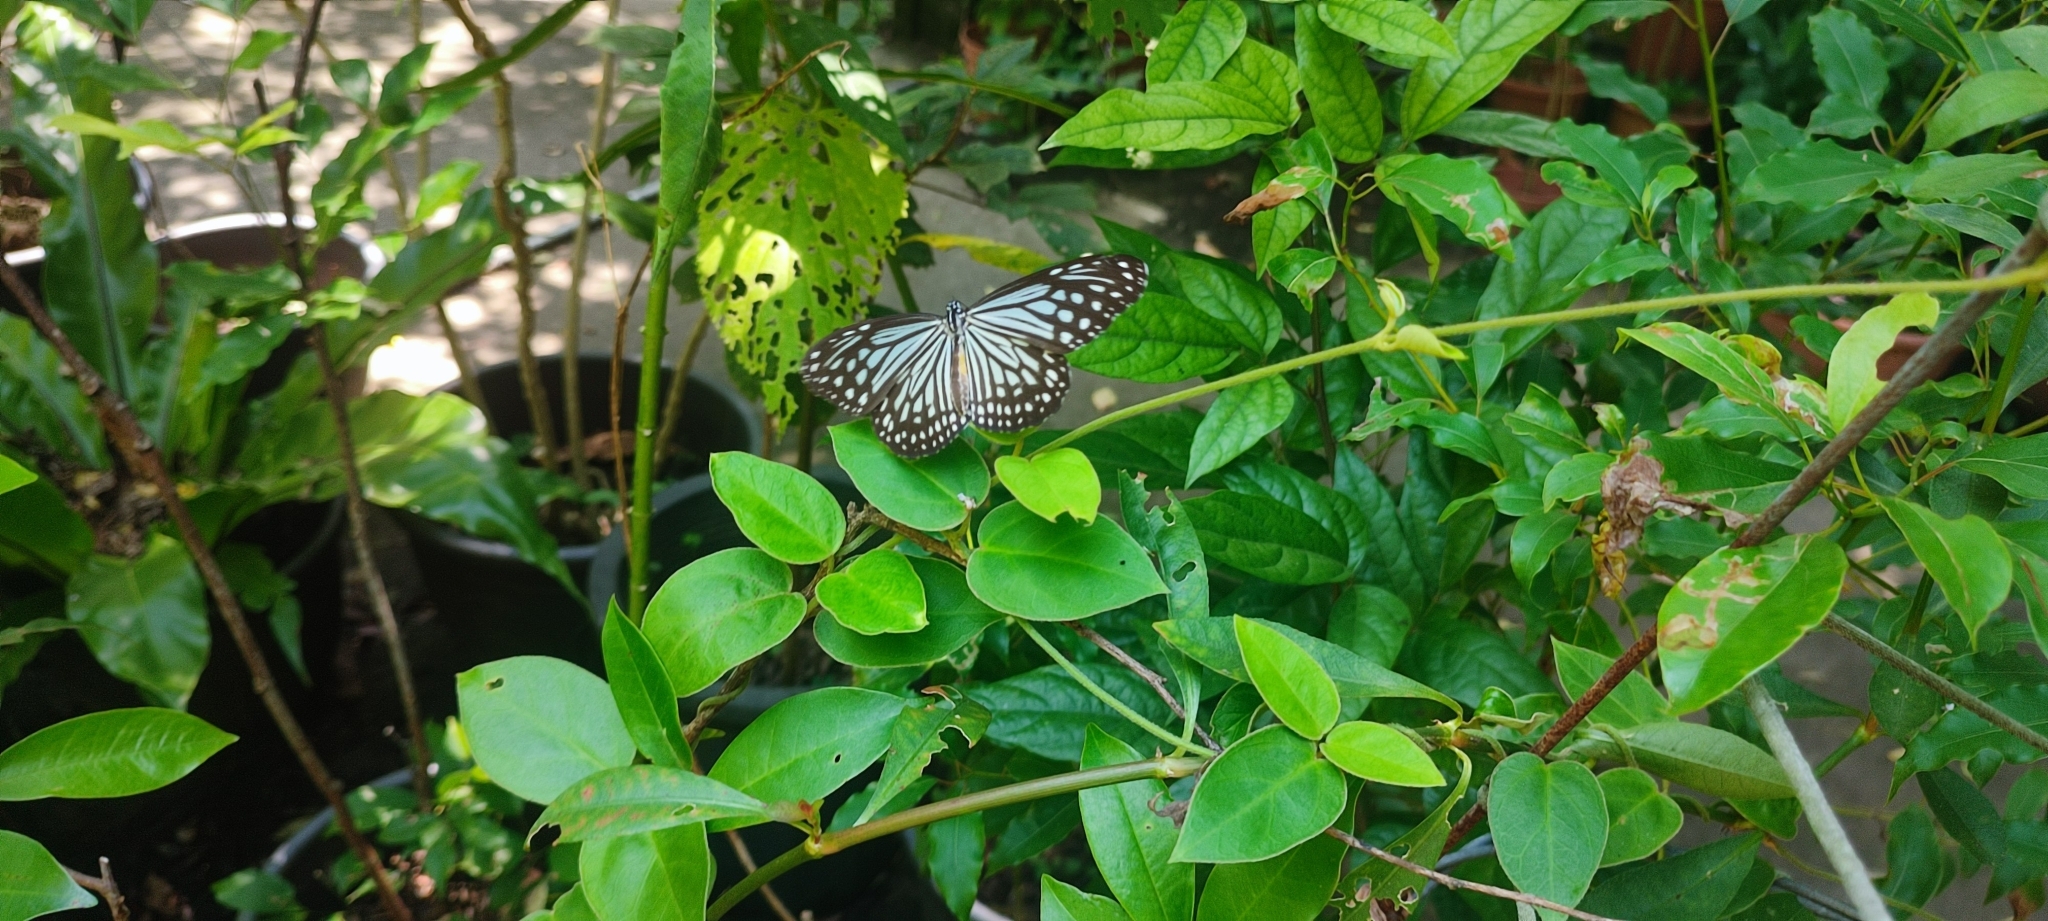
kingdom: Animalia
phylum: Arthropoda
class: Insecta
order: Lepidoptera
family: Nymphalidae
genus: Parantica
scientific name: Parantica aglea
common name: Glassy tiger
